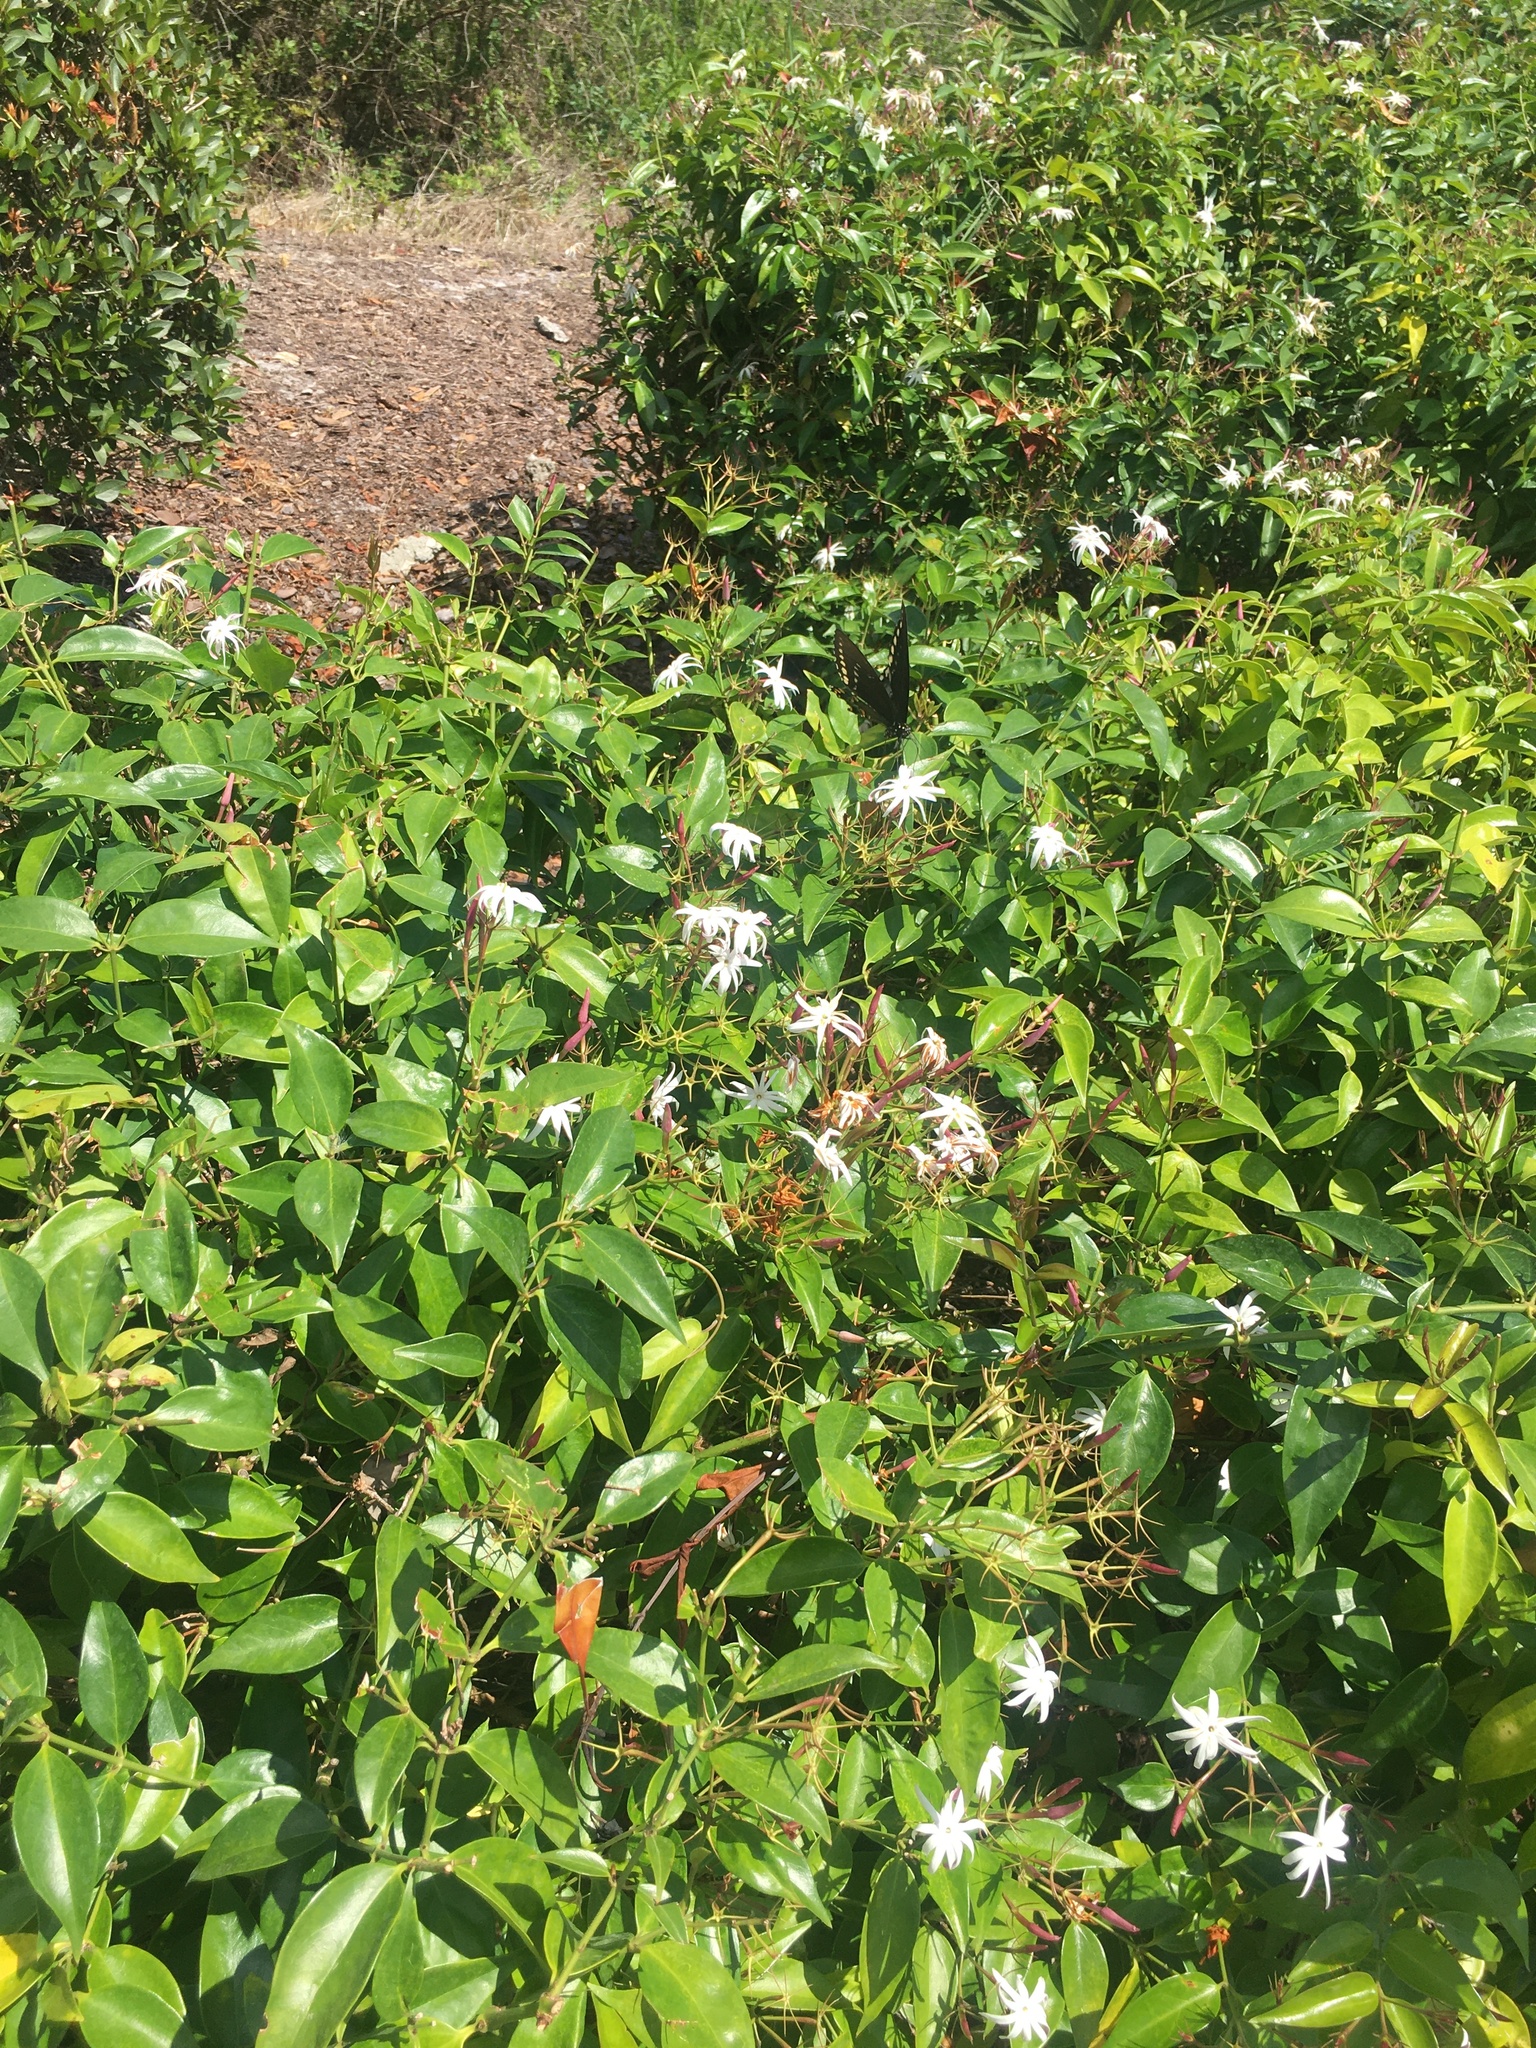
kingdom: Animalia
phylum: Arthropoda
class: Insecta
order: Lepidoptera
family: Papilionidae
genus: Papilio
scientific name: Papilio troilus
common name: Spicebush swallowtail
